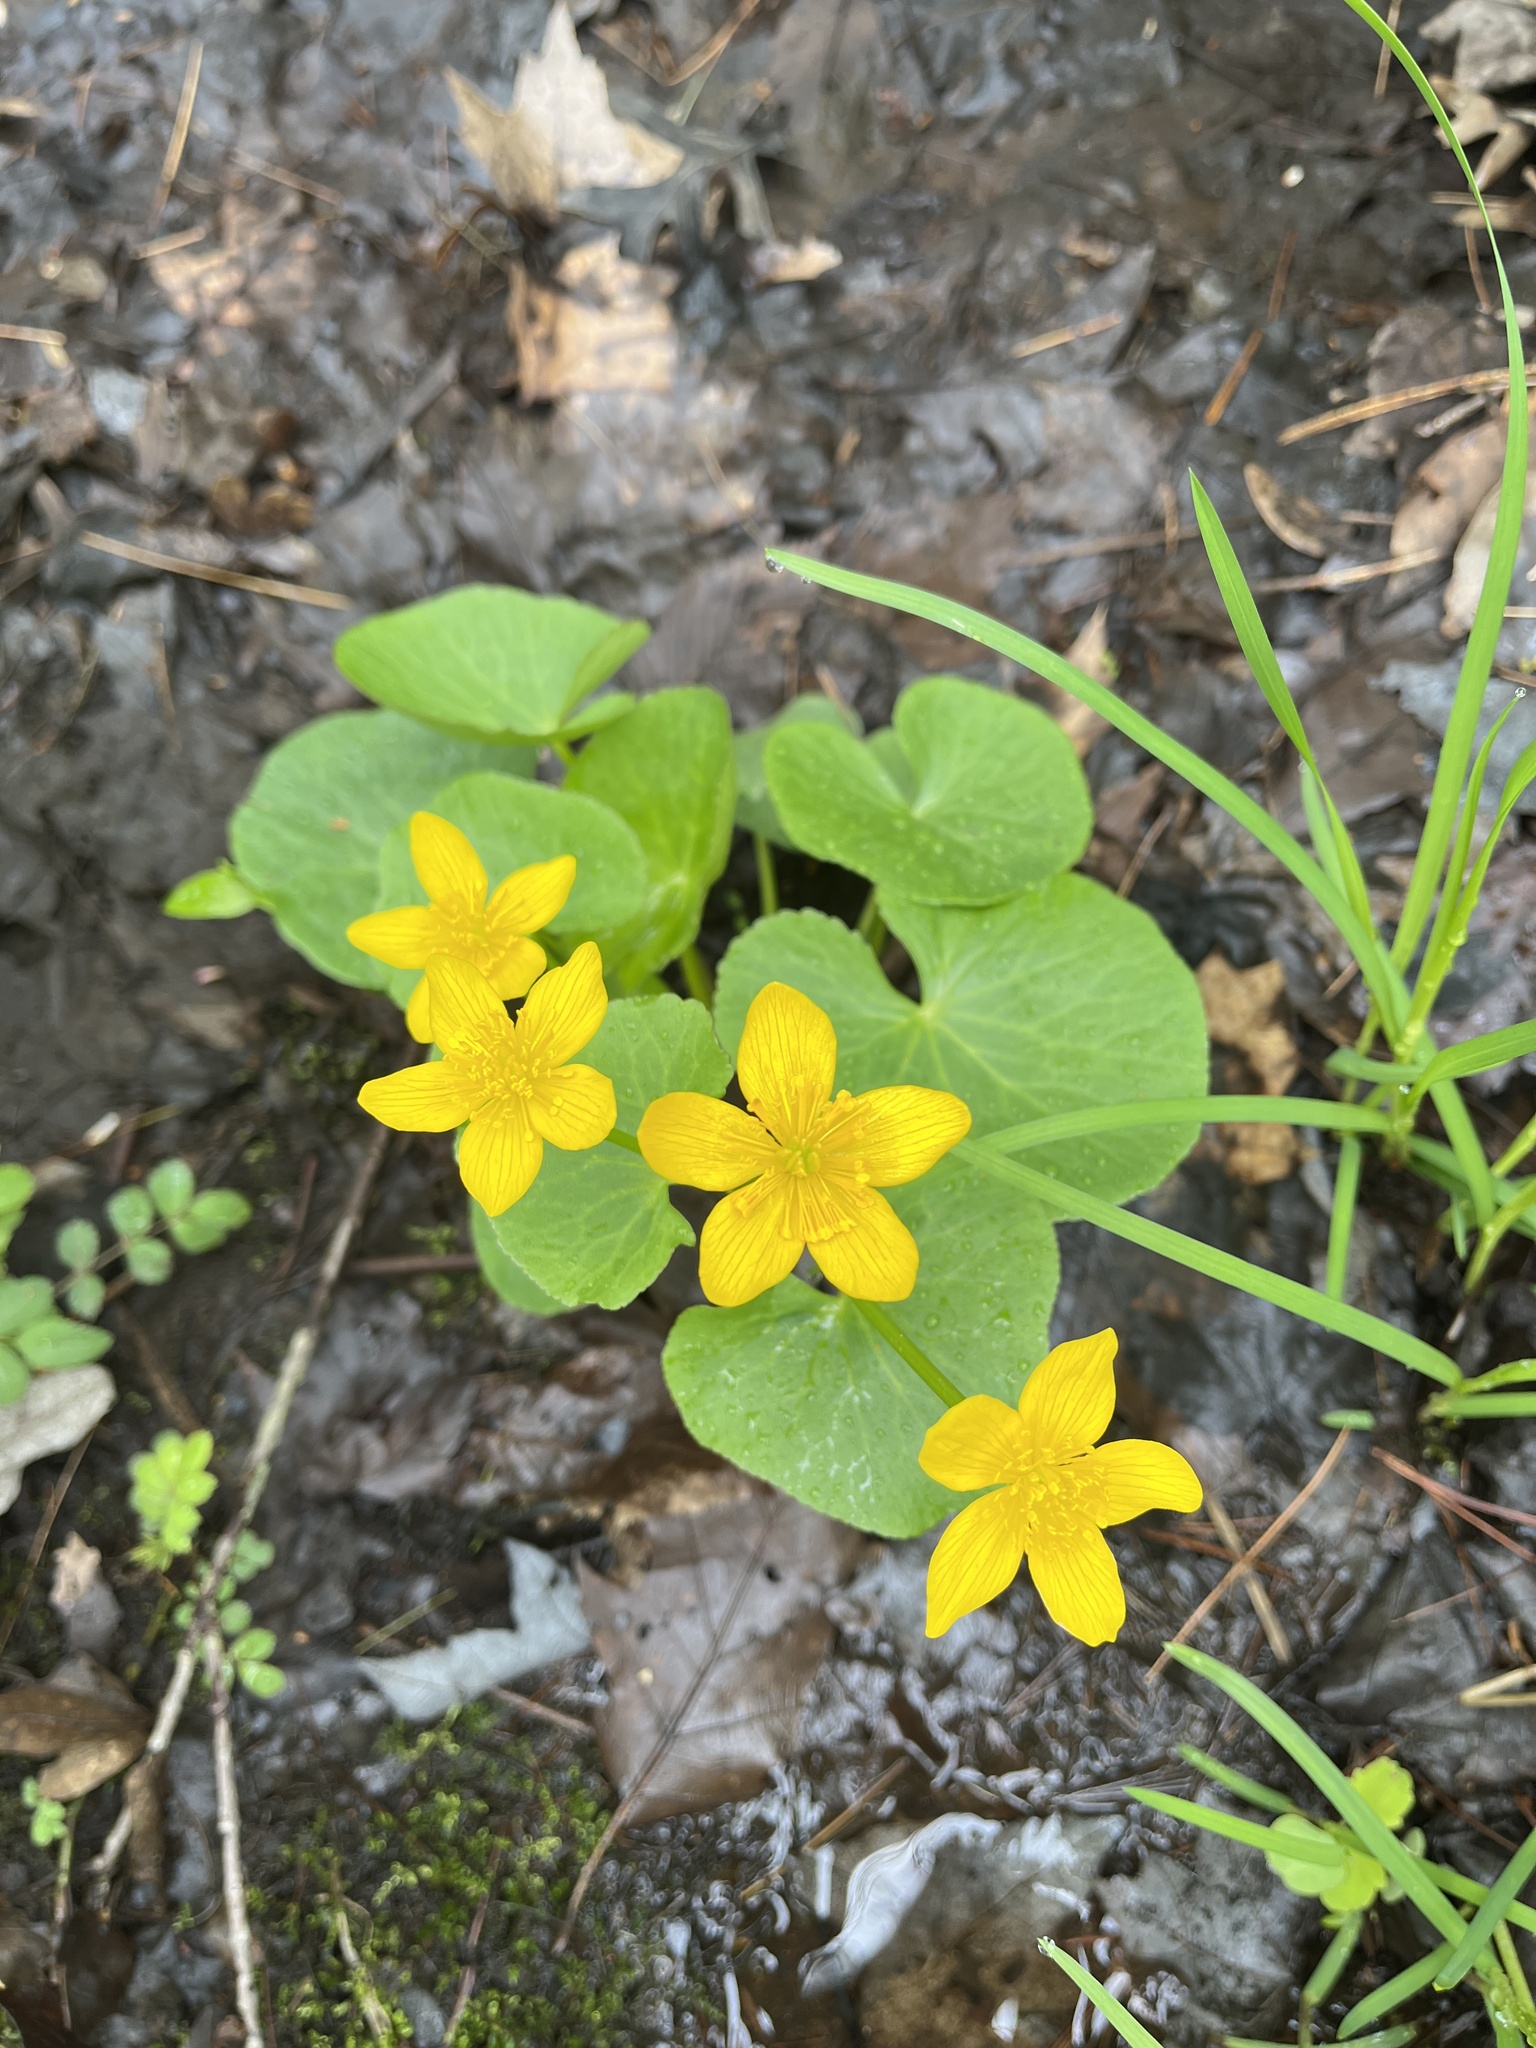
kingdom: Plantae
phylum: Tracheophyta
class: Magnoliopsida
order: Ranunculales
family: Ranunculaceae
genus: Caltha
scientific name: Caltha palustris
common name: Marsh marigold
